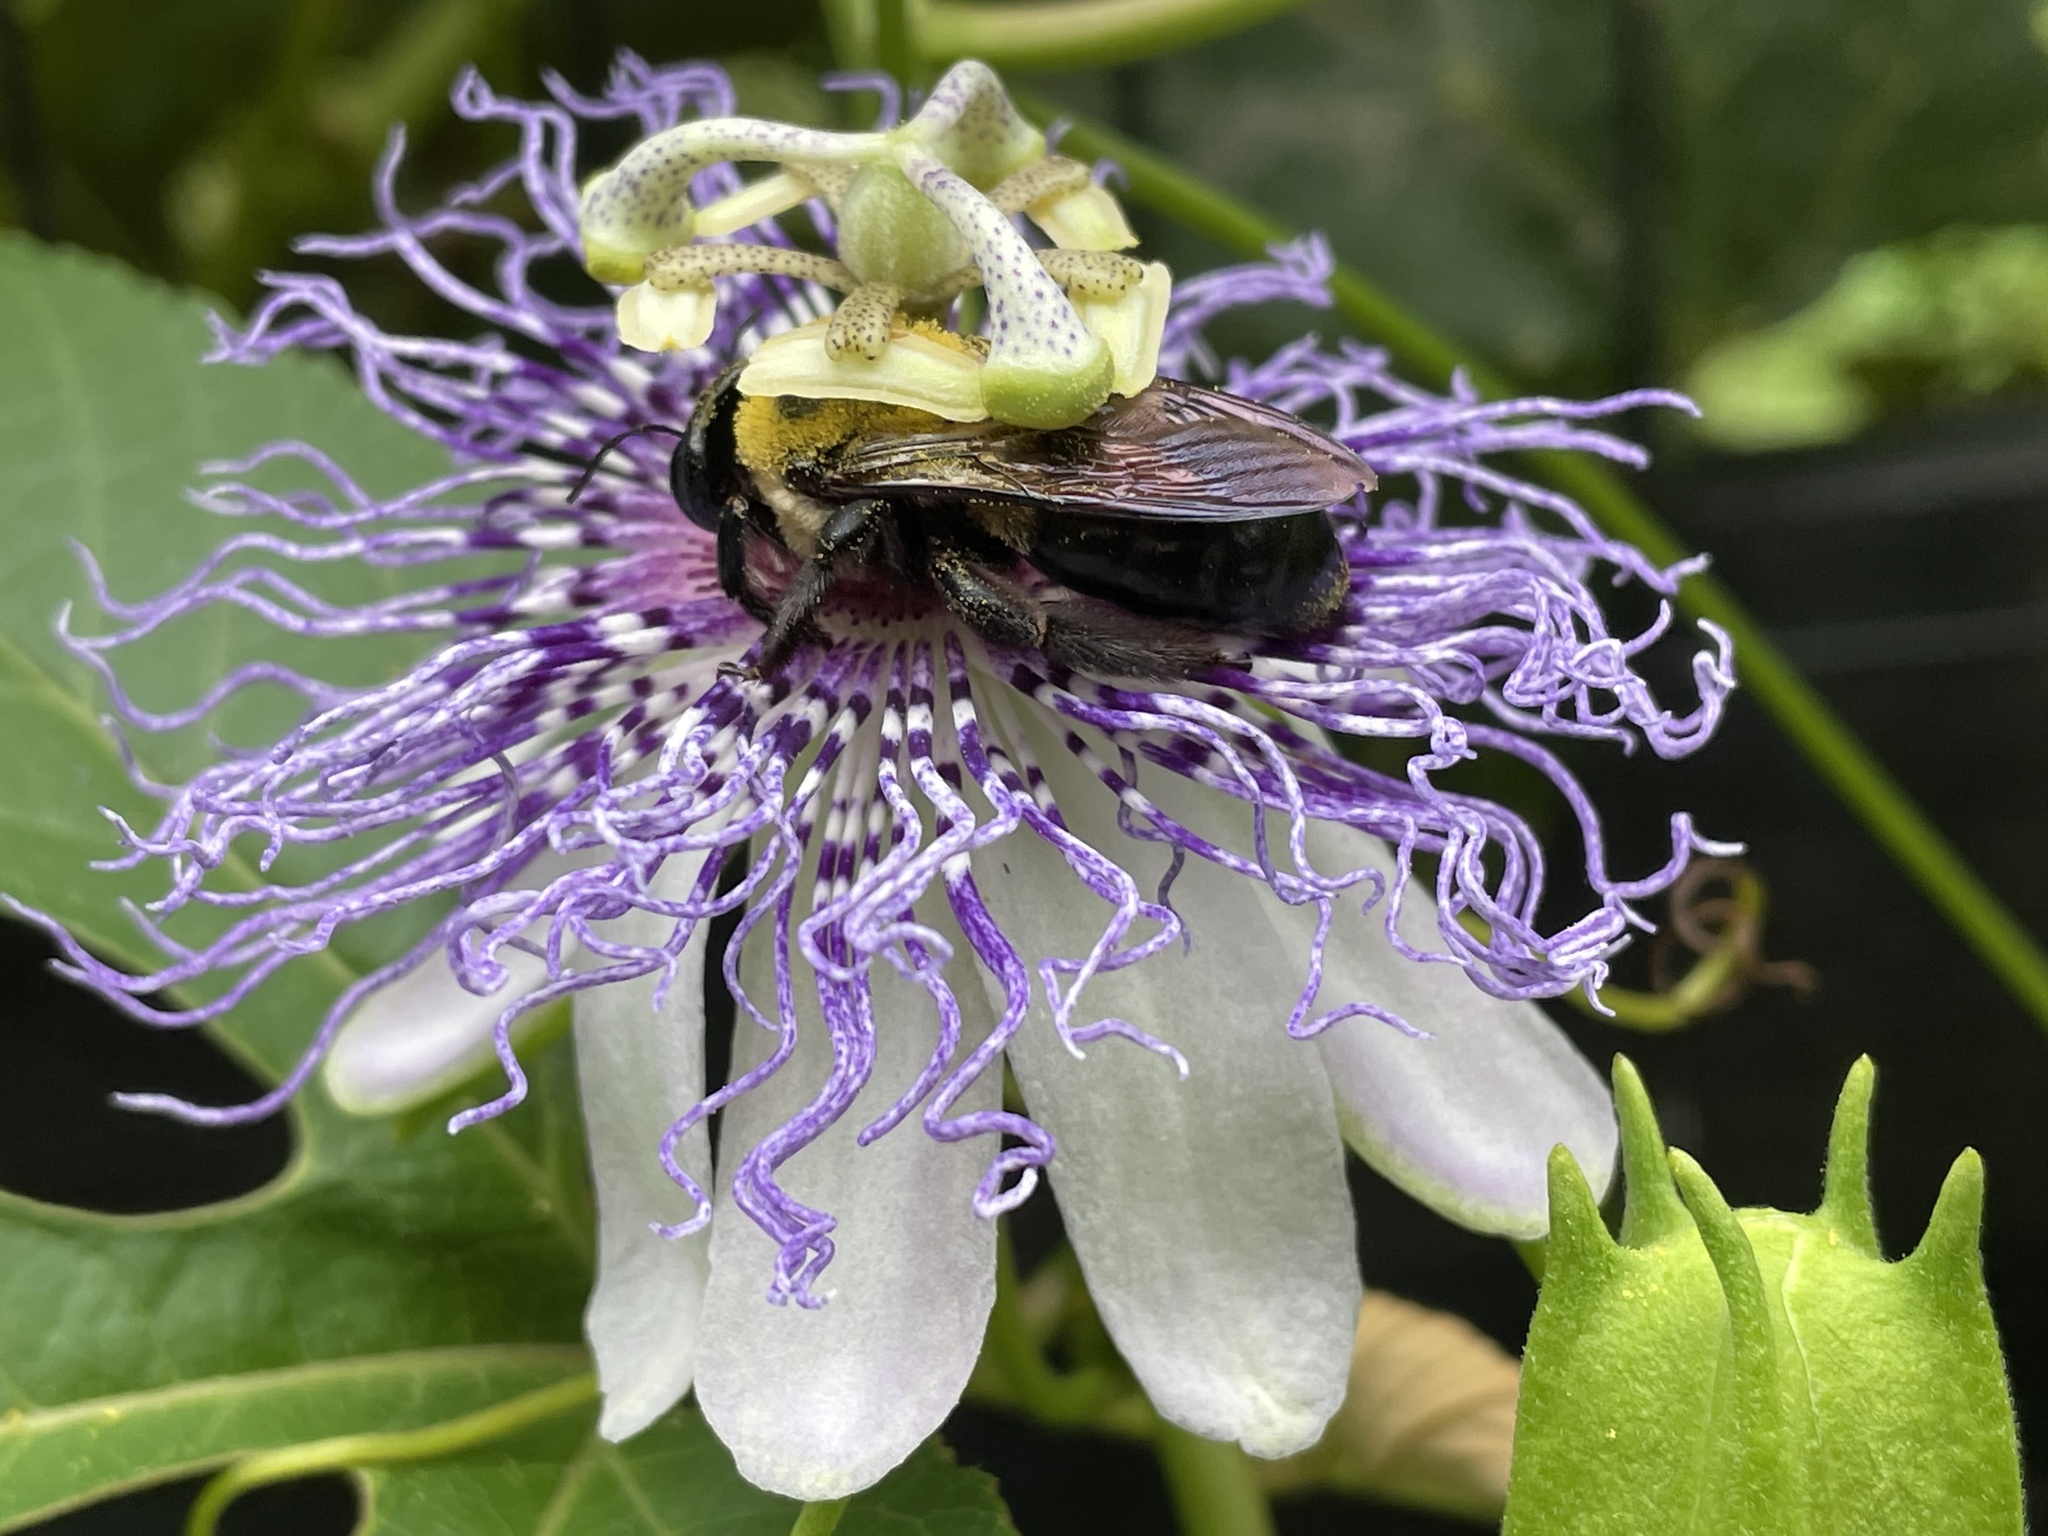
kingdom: Animalia
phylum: Arthropoda
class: Insecta
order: Hymenoptera
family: Apidae
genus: Xylocopa
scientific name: Xylocopa virginica
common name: Carpenter bee
